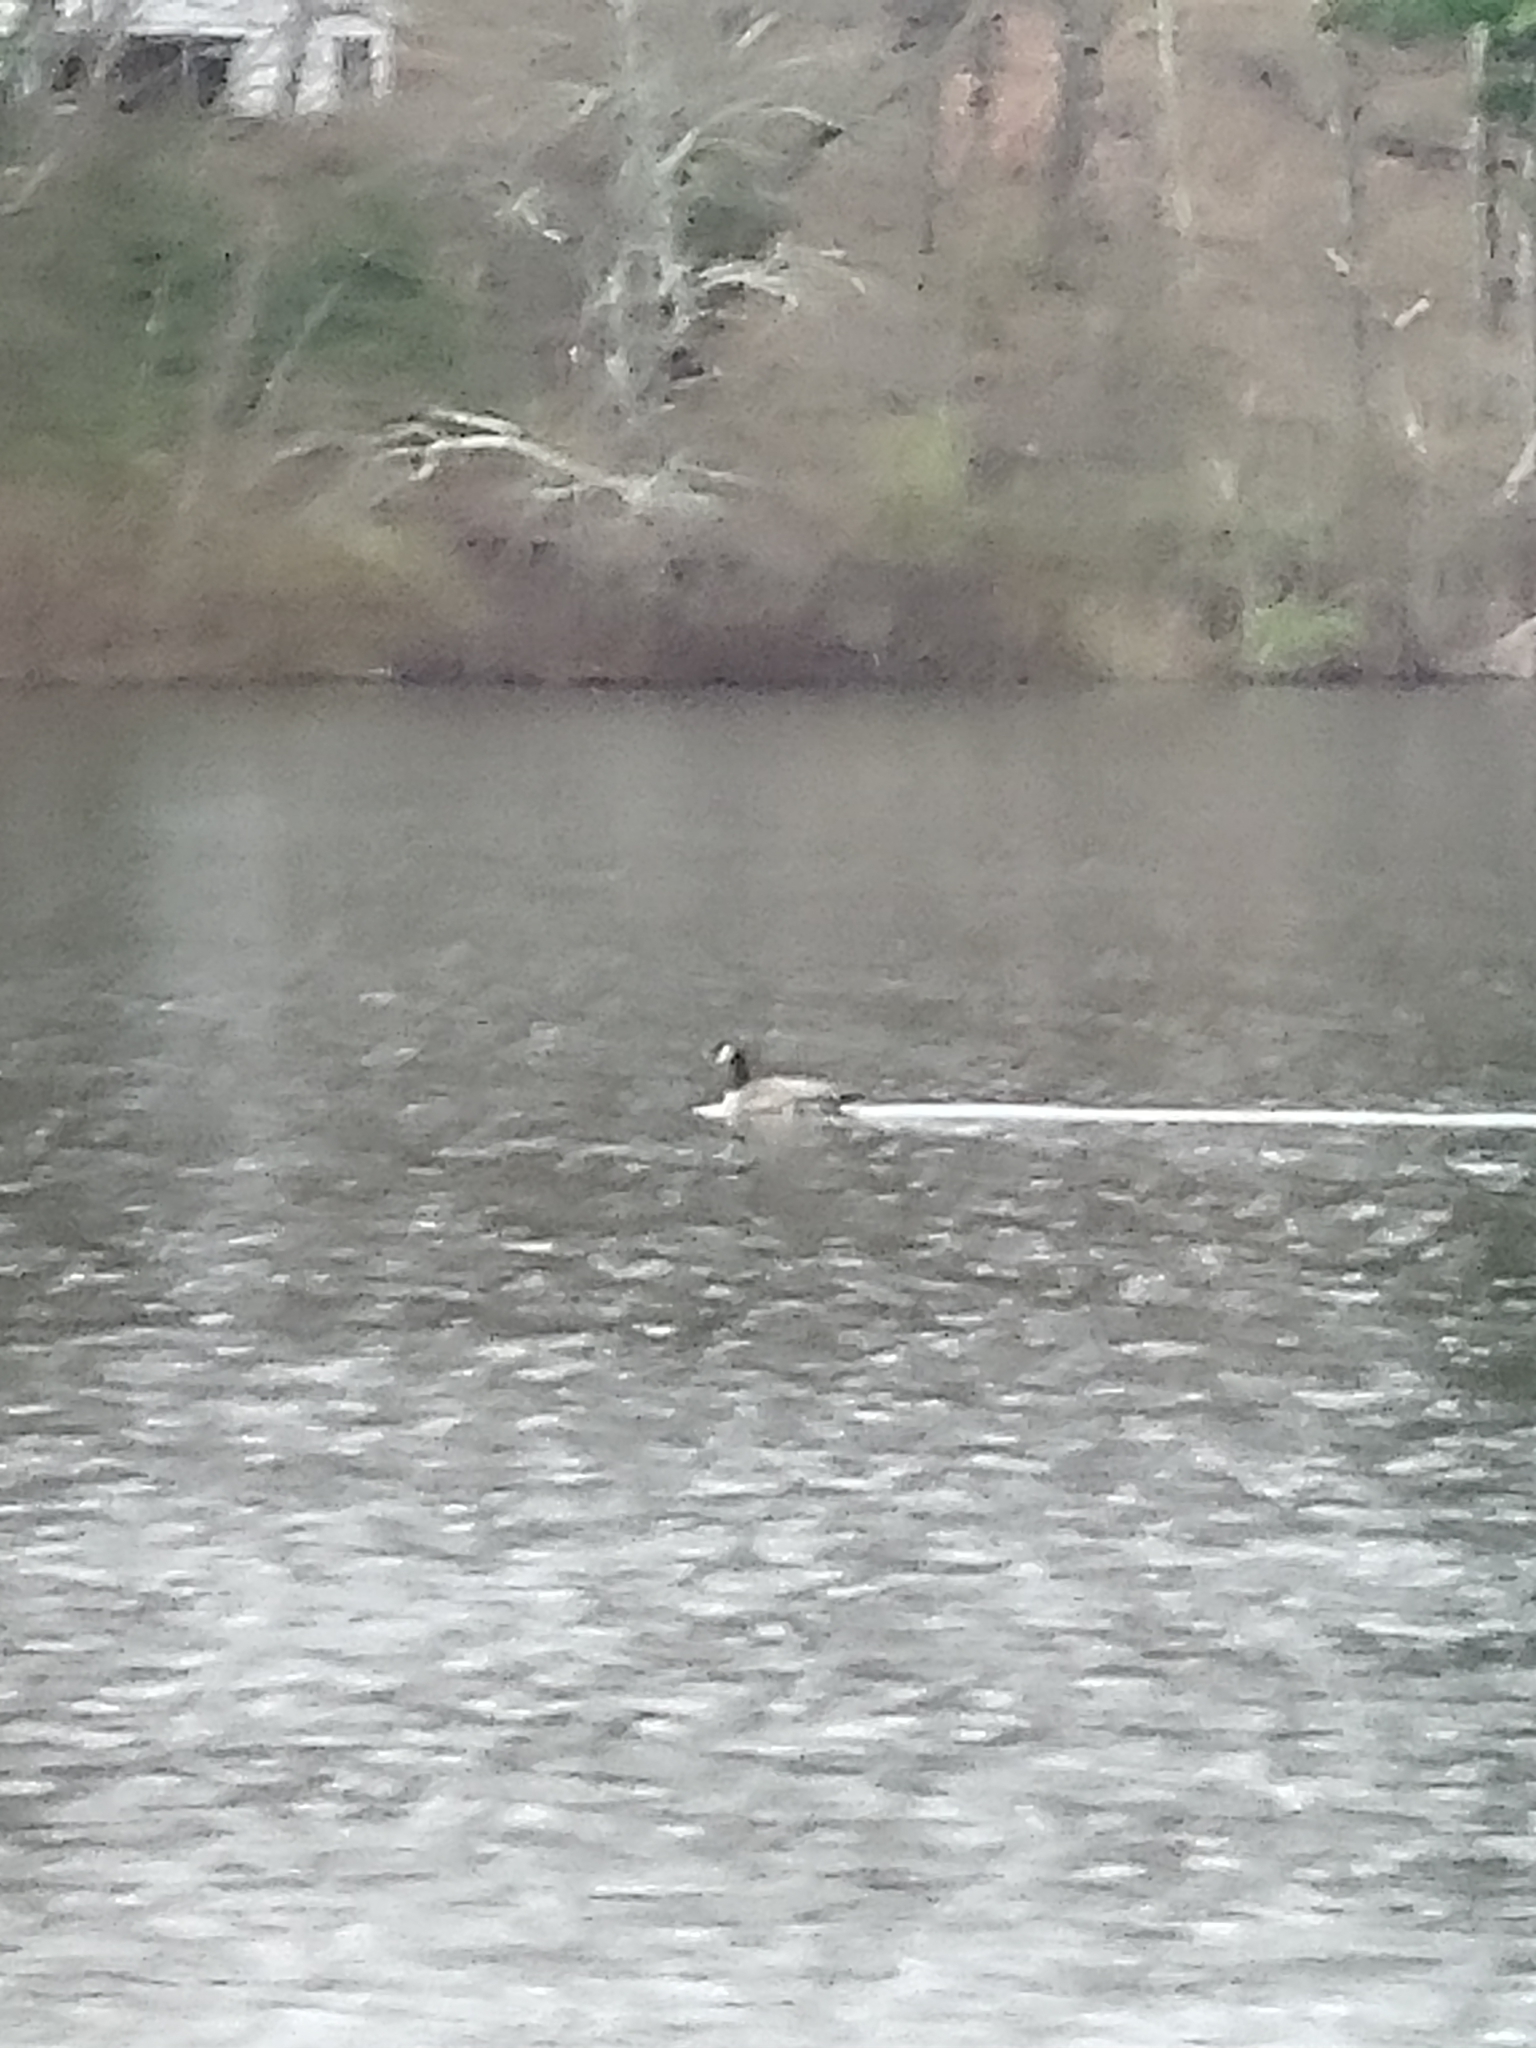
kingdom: Animalia
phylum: Chordata
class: Aves
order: Anseriformes
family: Anatidae
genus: Branta
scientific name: Branta canadensis
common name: Canada goose
